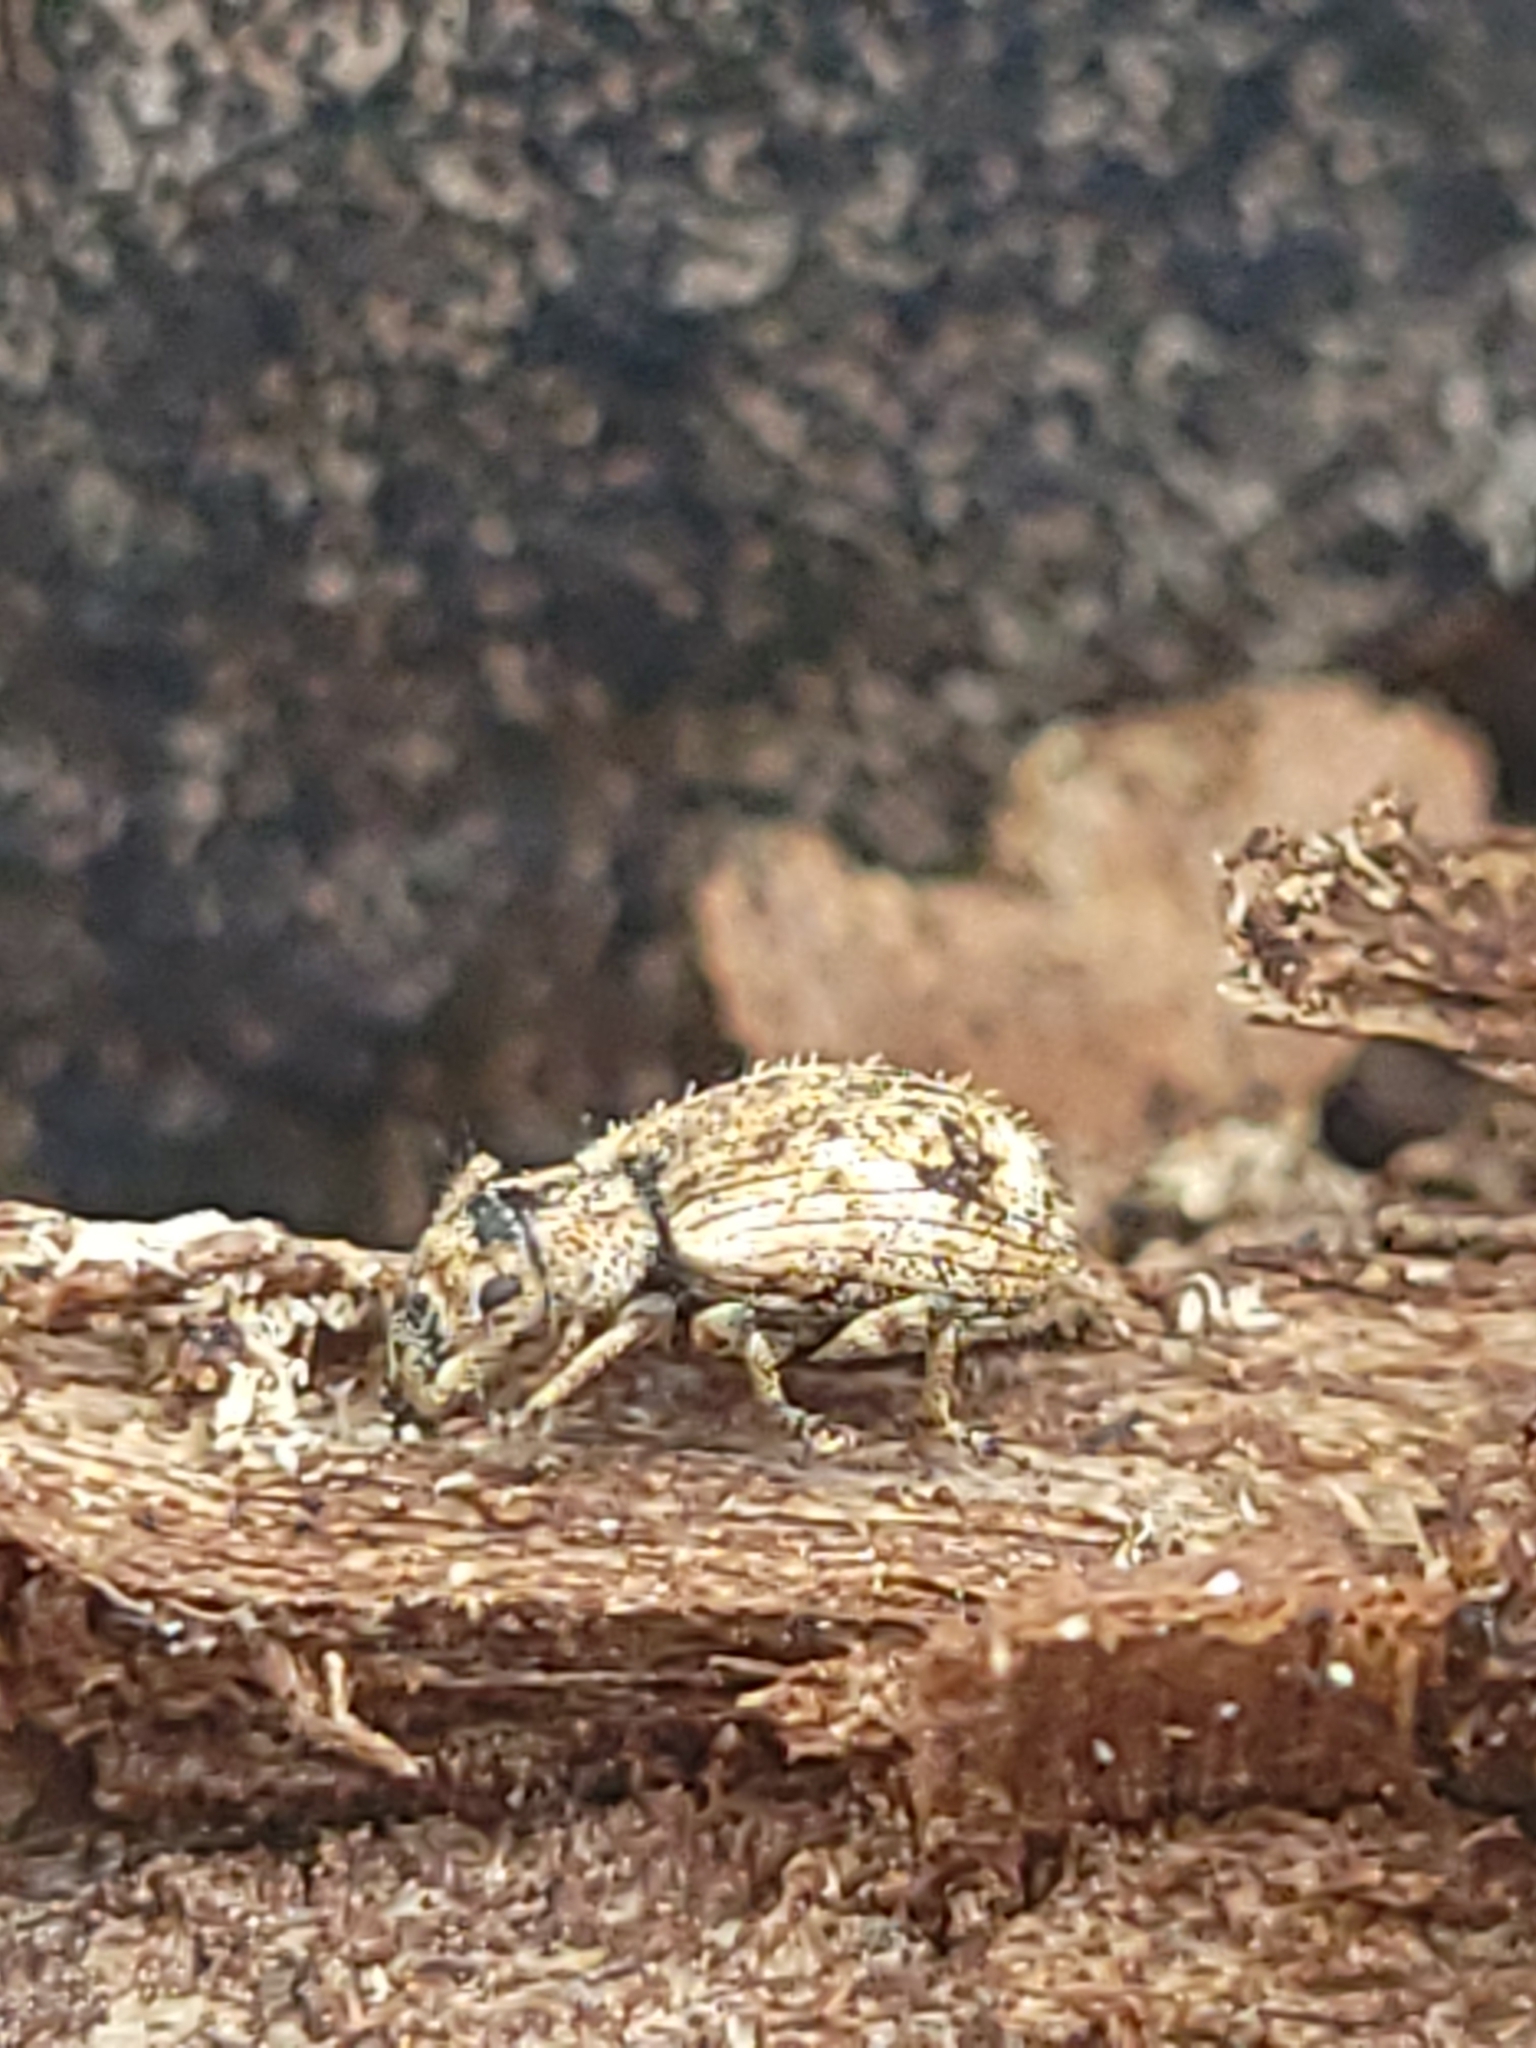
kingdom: Animalia
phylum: Arthropoda
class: Insecta
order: Coleoptera
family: Curculionidae
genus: Pseudoedophrys
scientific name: Pseudoedophrys hilleri
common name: Weevil
